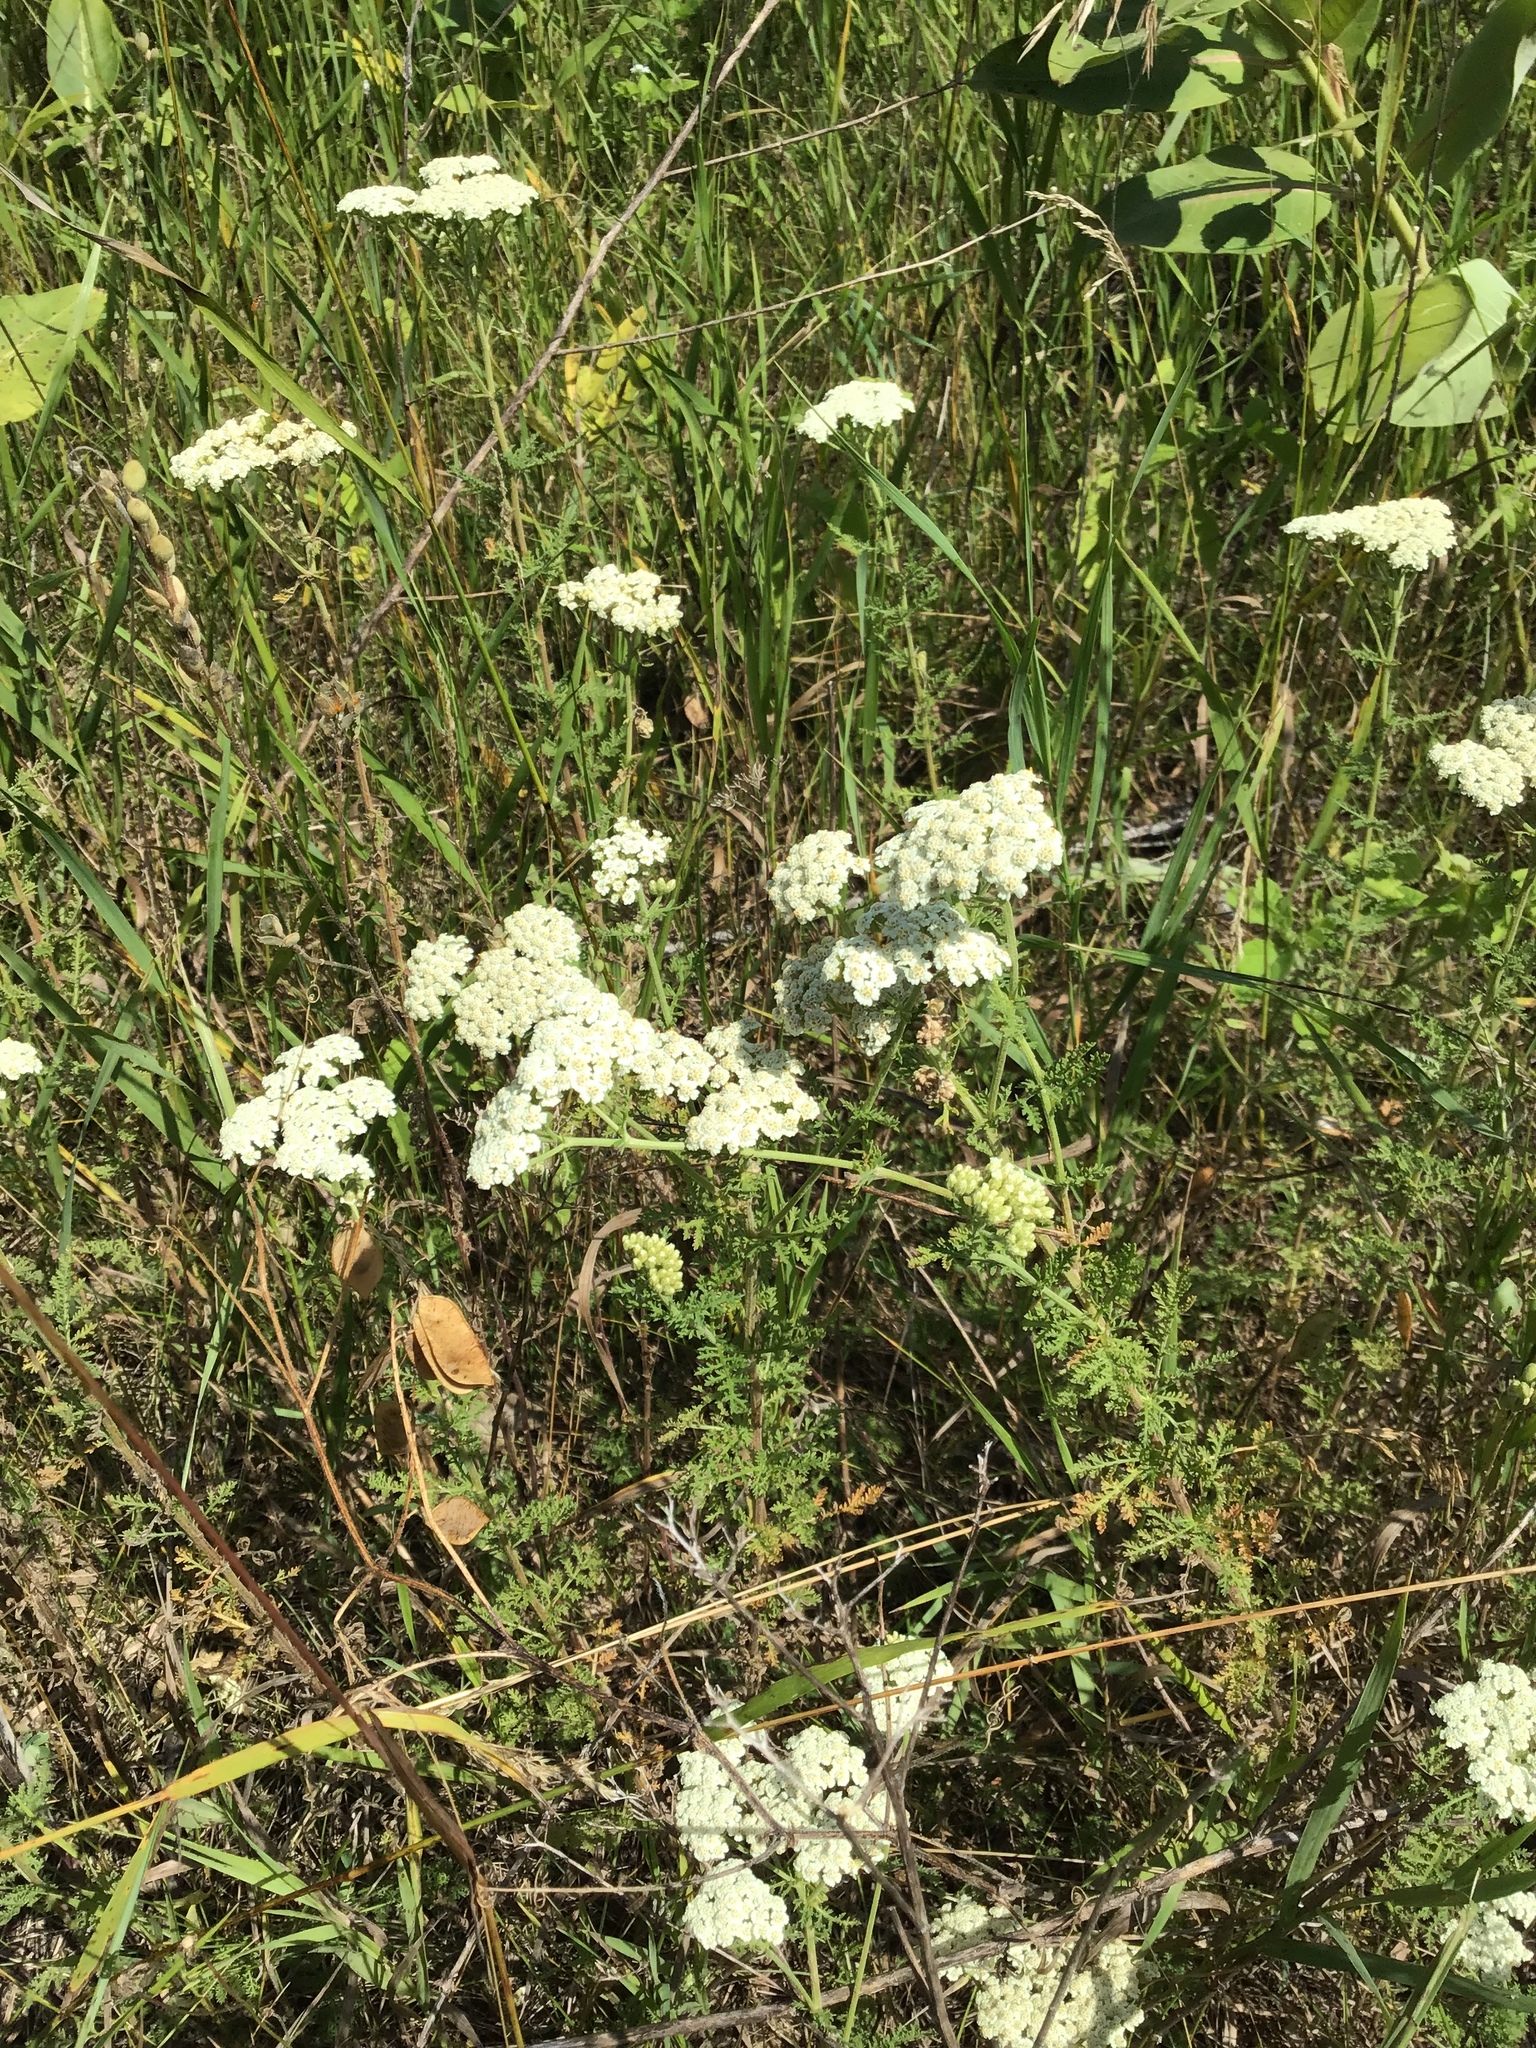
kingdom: Plantae
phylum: Tracheophyta
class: Magnoliopsida
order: Asterales
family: Asteraceae
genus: Achillea
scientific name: Achillea millefolium
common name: Yarrow
